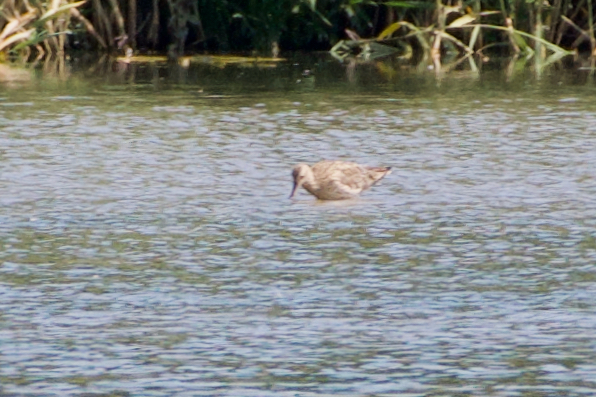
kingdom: Animalia
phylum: Chordata
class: Aves
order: Charadriiformes
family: Scolopacidae
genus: Numenius
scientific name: Numenius arquata
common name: Eurasian curlew
